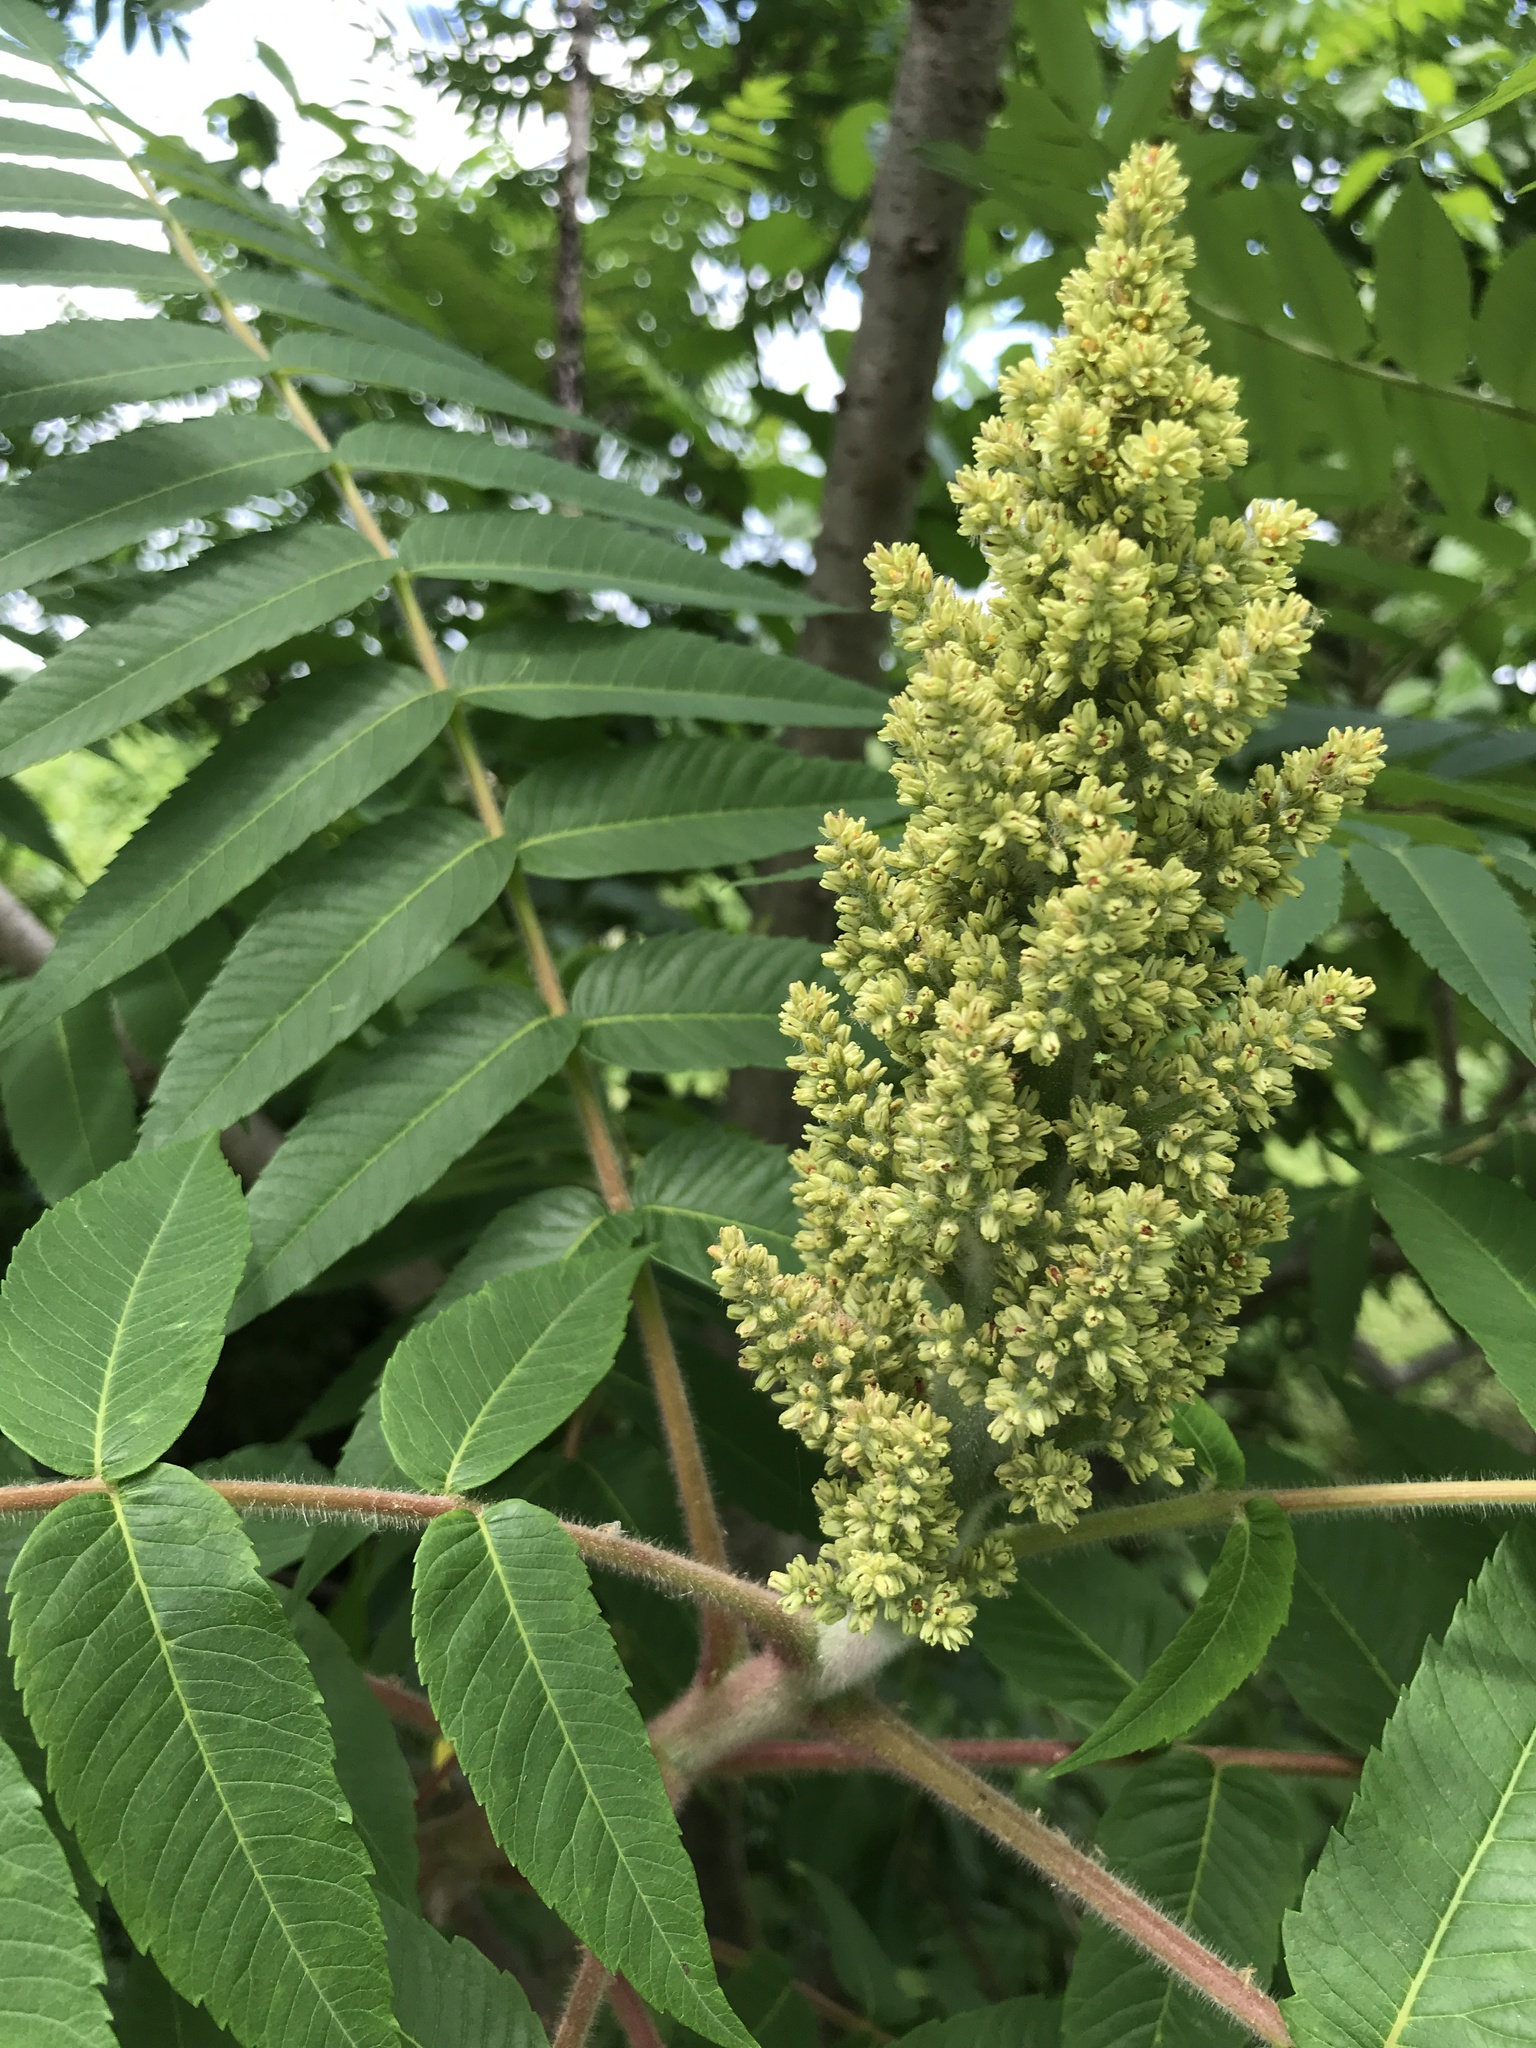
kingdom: Plantae
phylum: Tracheophyta
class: Magnoliopsida
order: Sapindales
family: Anacardiaceae
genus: Rhus
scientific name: Rhus typhina
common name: Staghorn sumac
